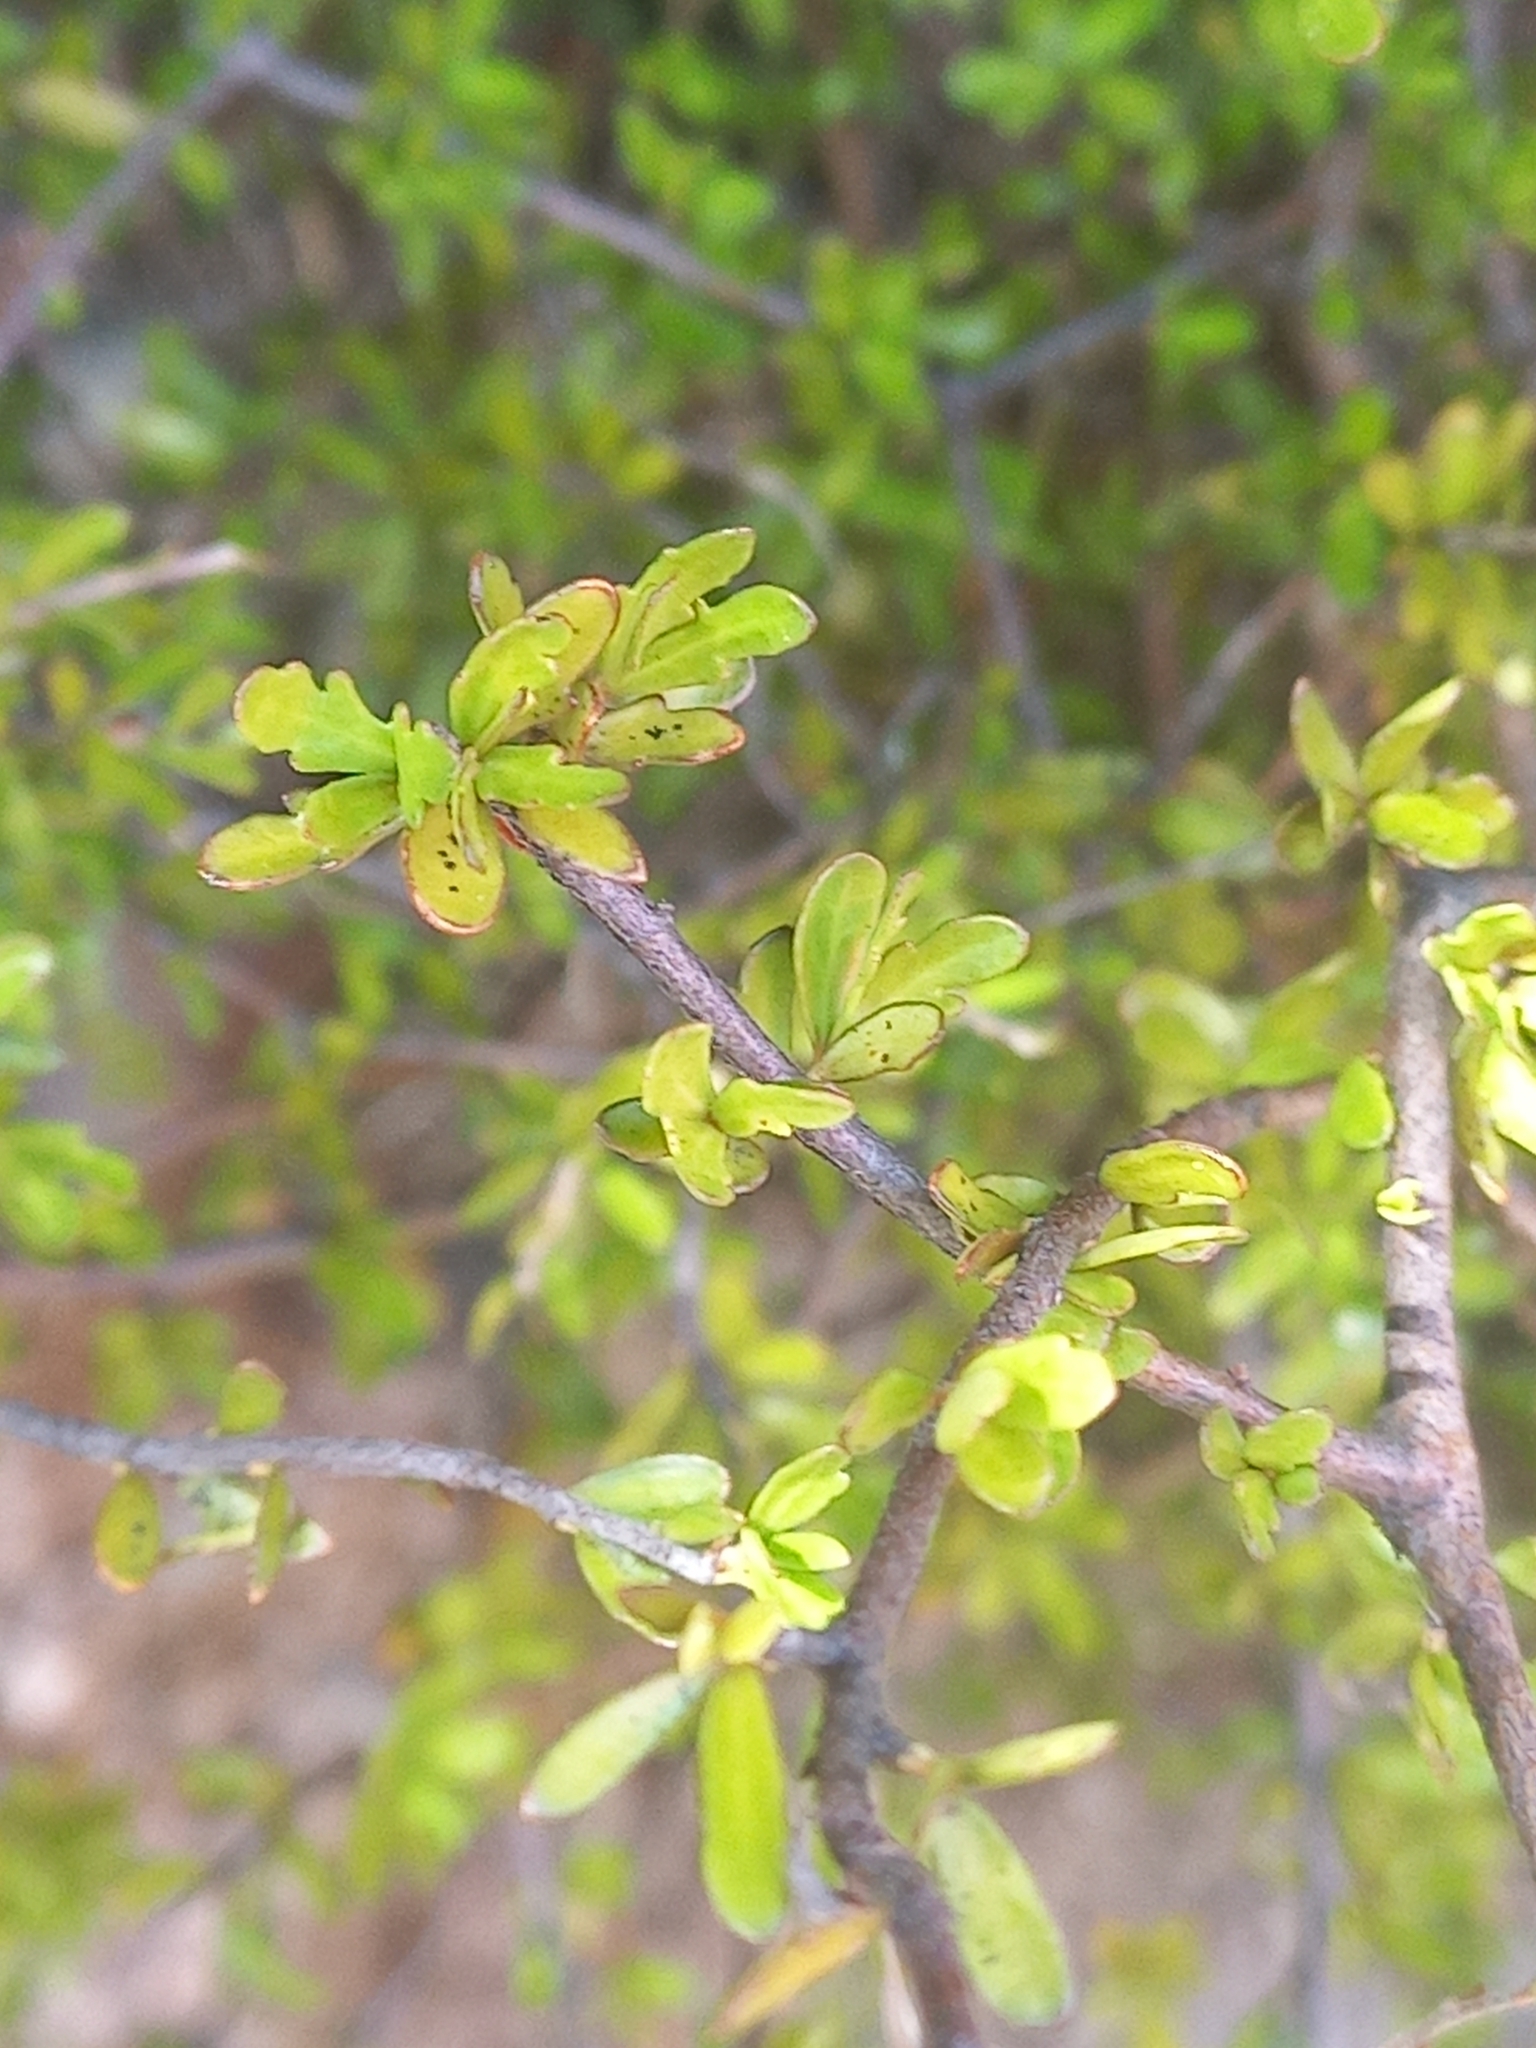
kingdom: Plantae
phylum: Tracheophyta
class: Magnoliopsida
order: Apiales
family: Pittosporaceae
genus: Pittosporum
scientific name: Pittosporum divaricatum
